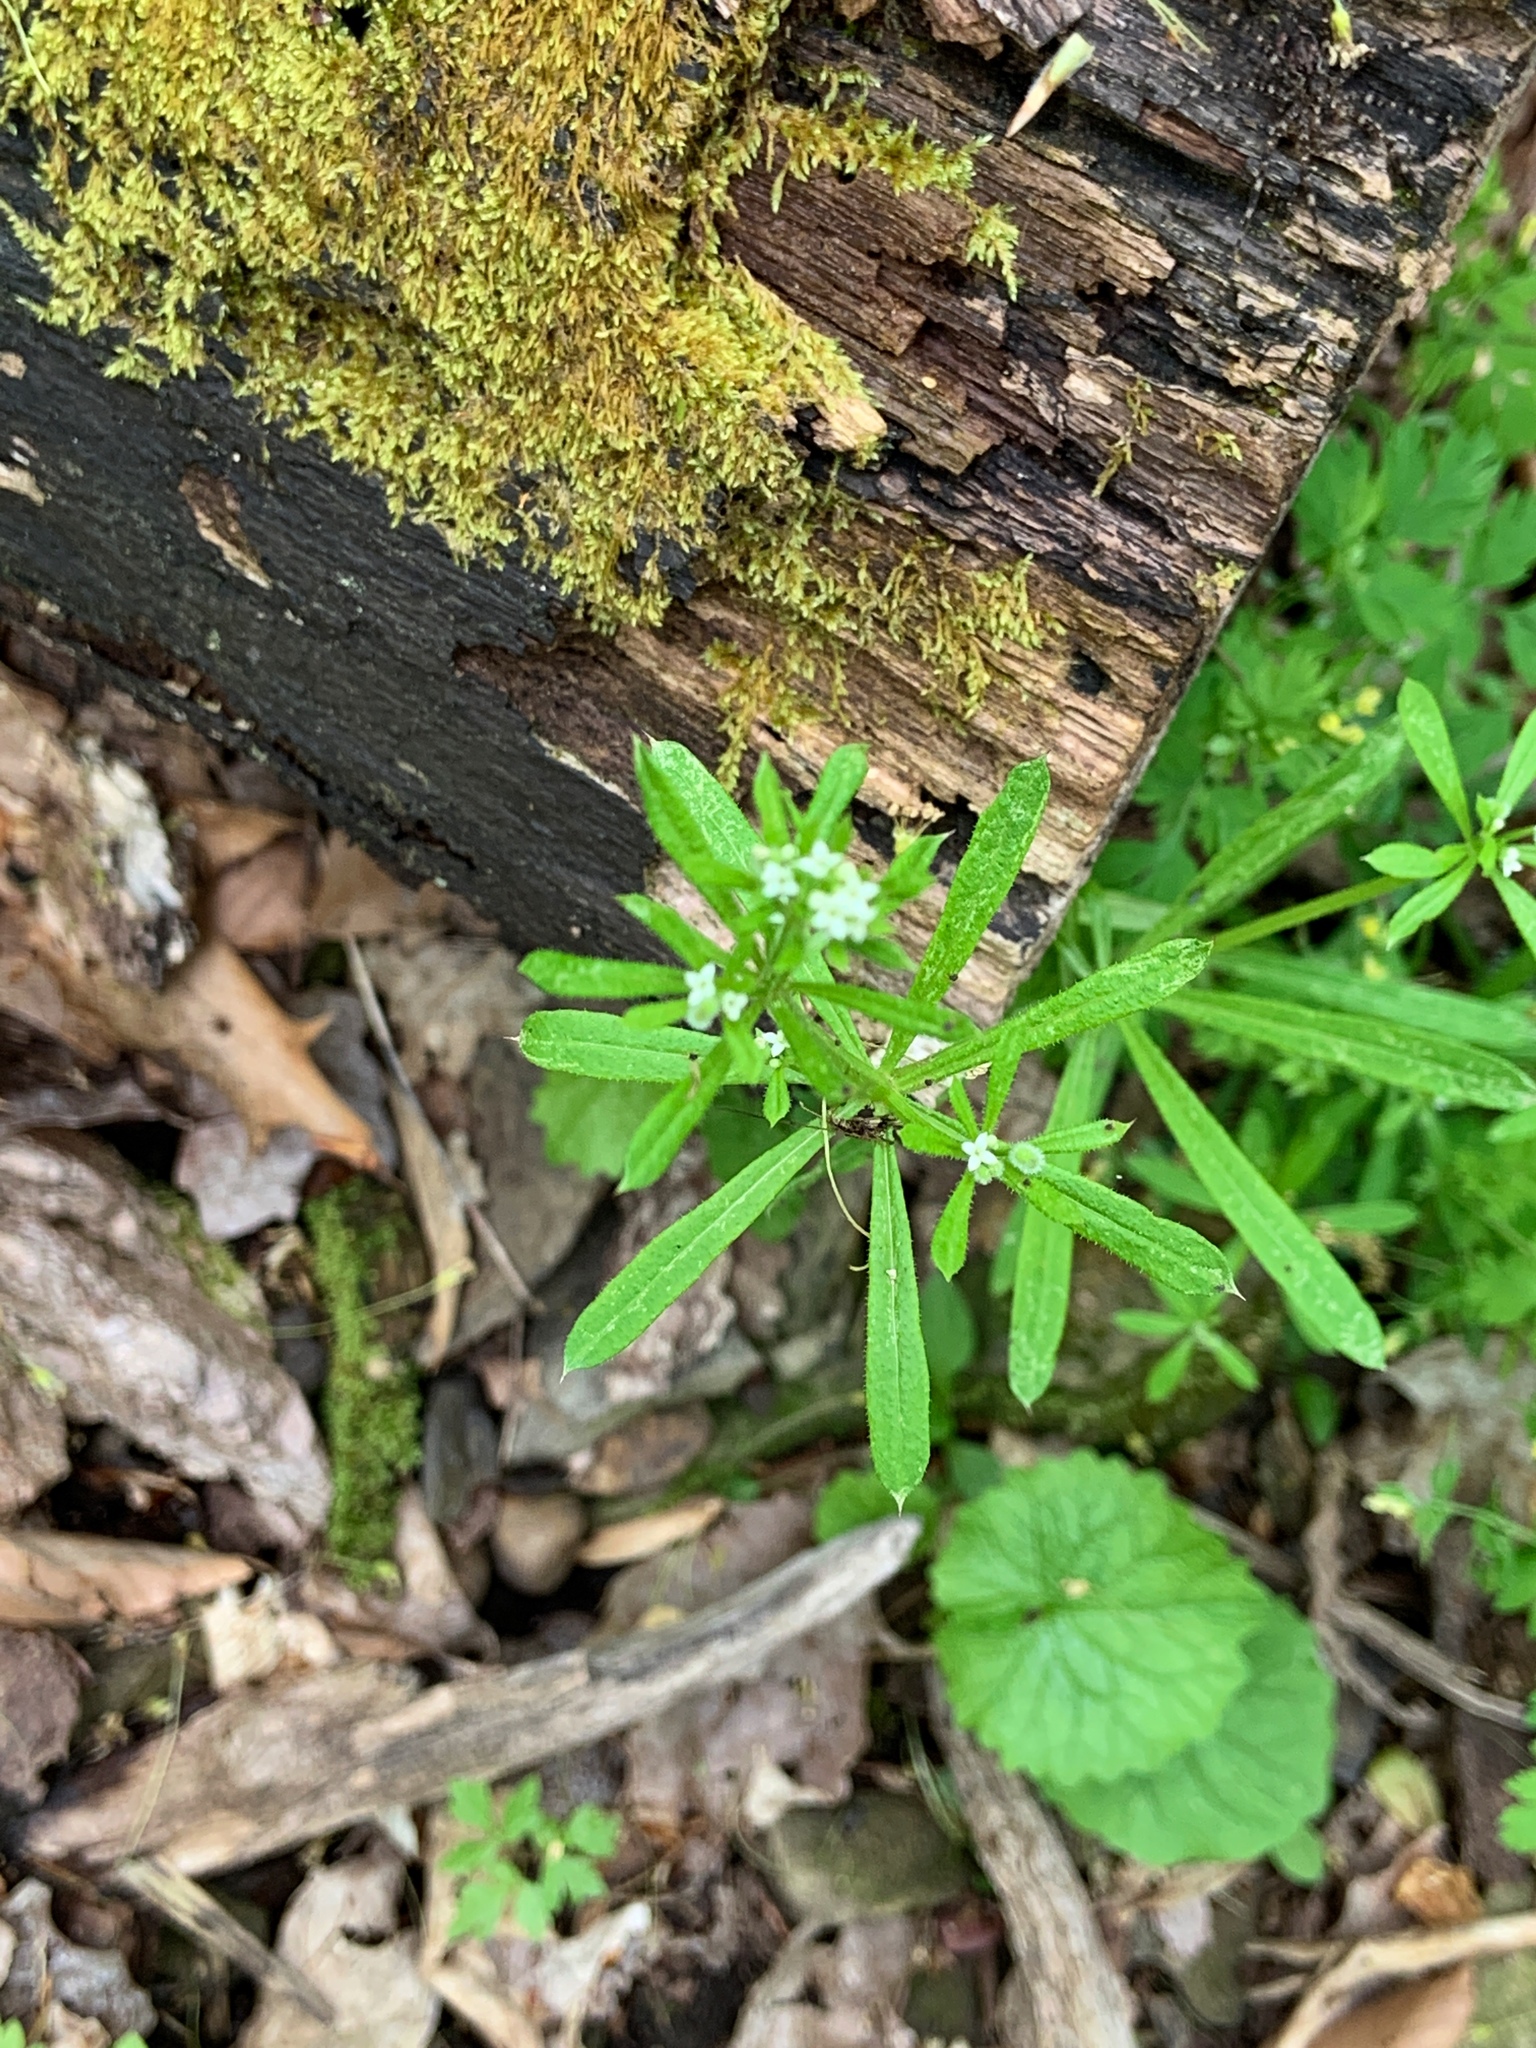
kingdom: Plantae
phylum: Tracheophyta
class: Magnoliopsida
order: Gentianales
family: Rubiaceae
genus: Galium
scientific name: Galium aparine
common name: Cleavers
